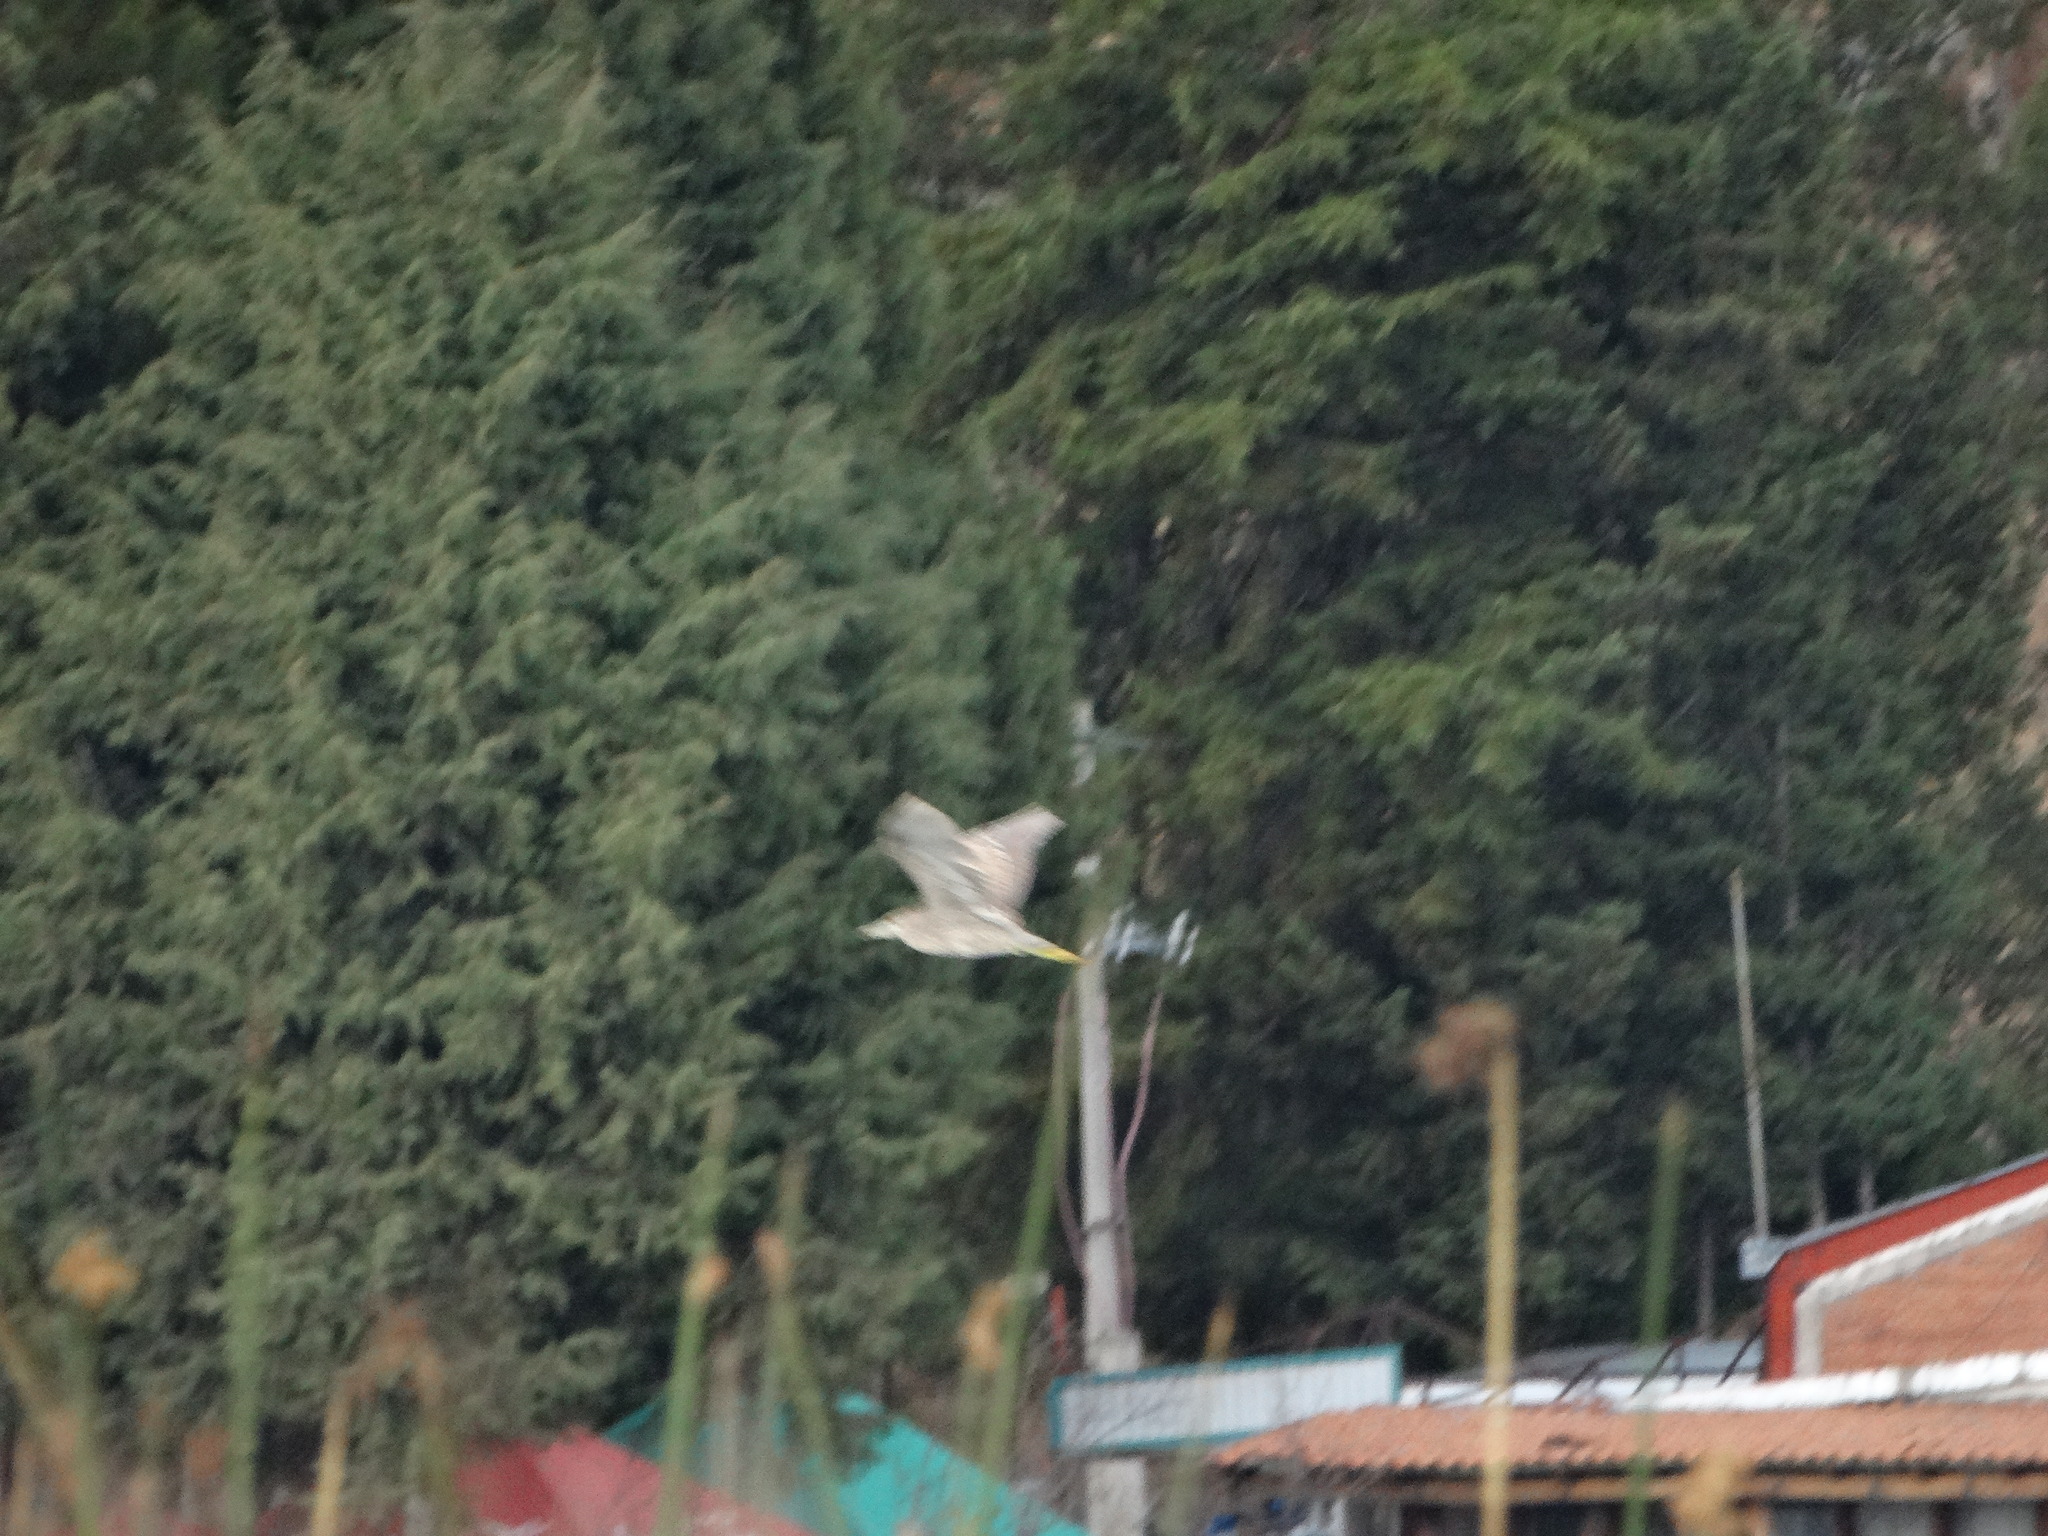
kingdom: Animalia
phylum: Chordata
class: Aves
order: Pelecaniformes
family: Ardeidae
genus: Nycticorax
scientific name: Nycticorax nycticorax
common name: Black-crowned night heron
